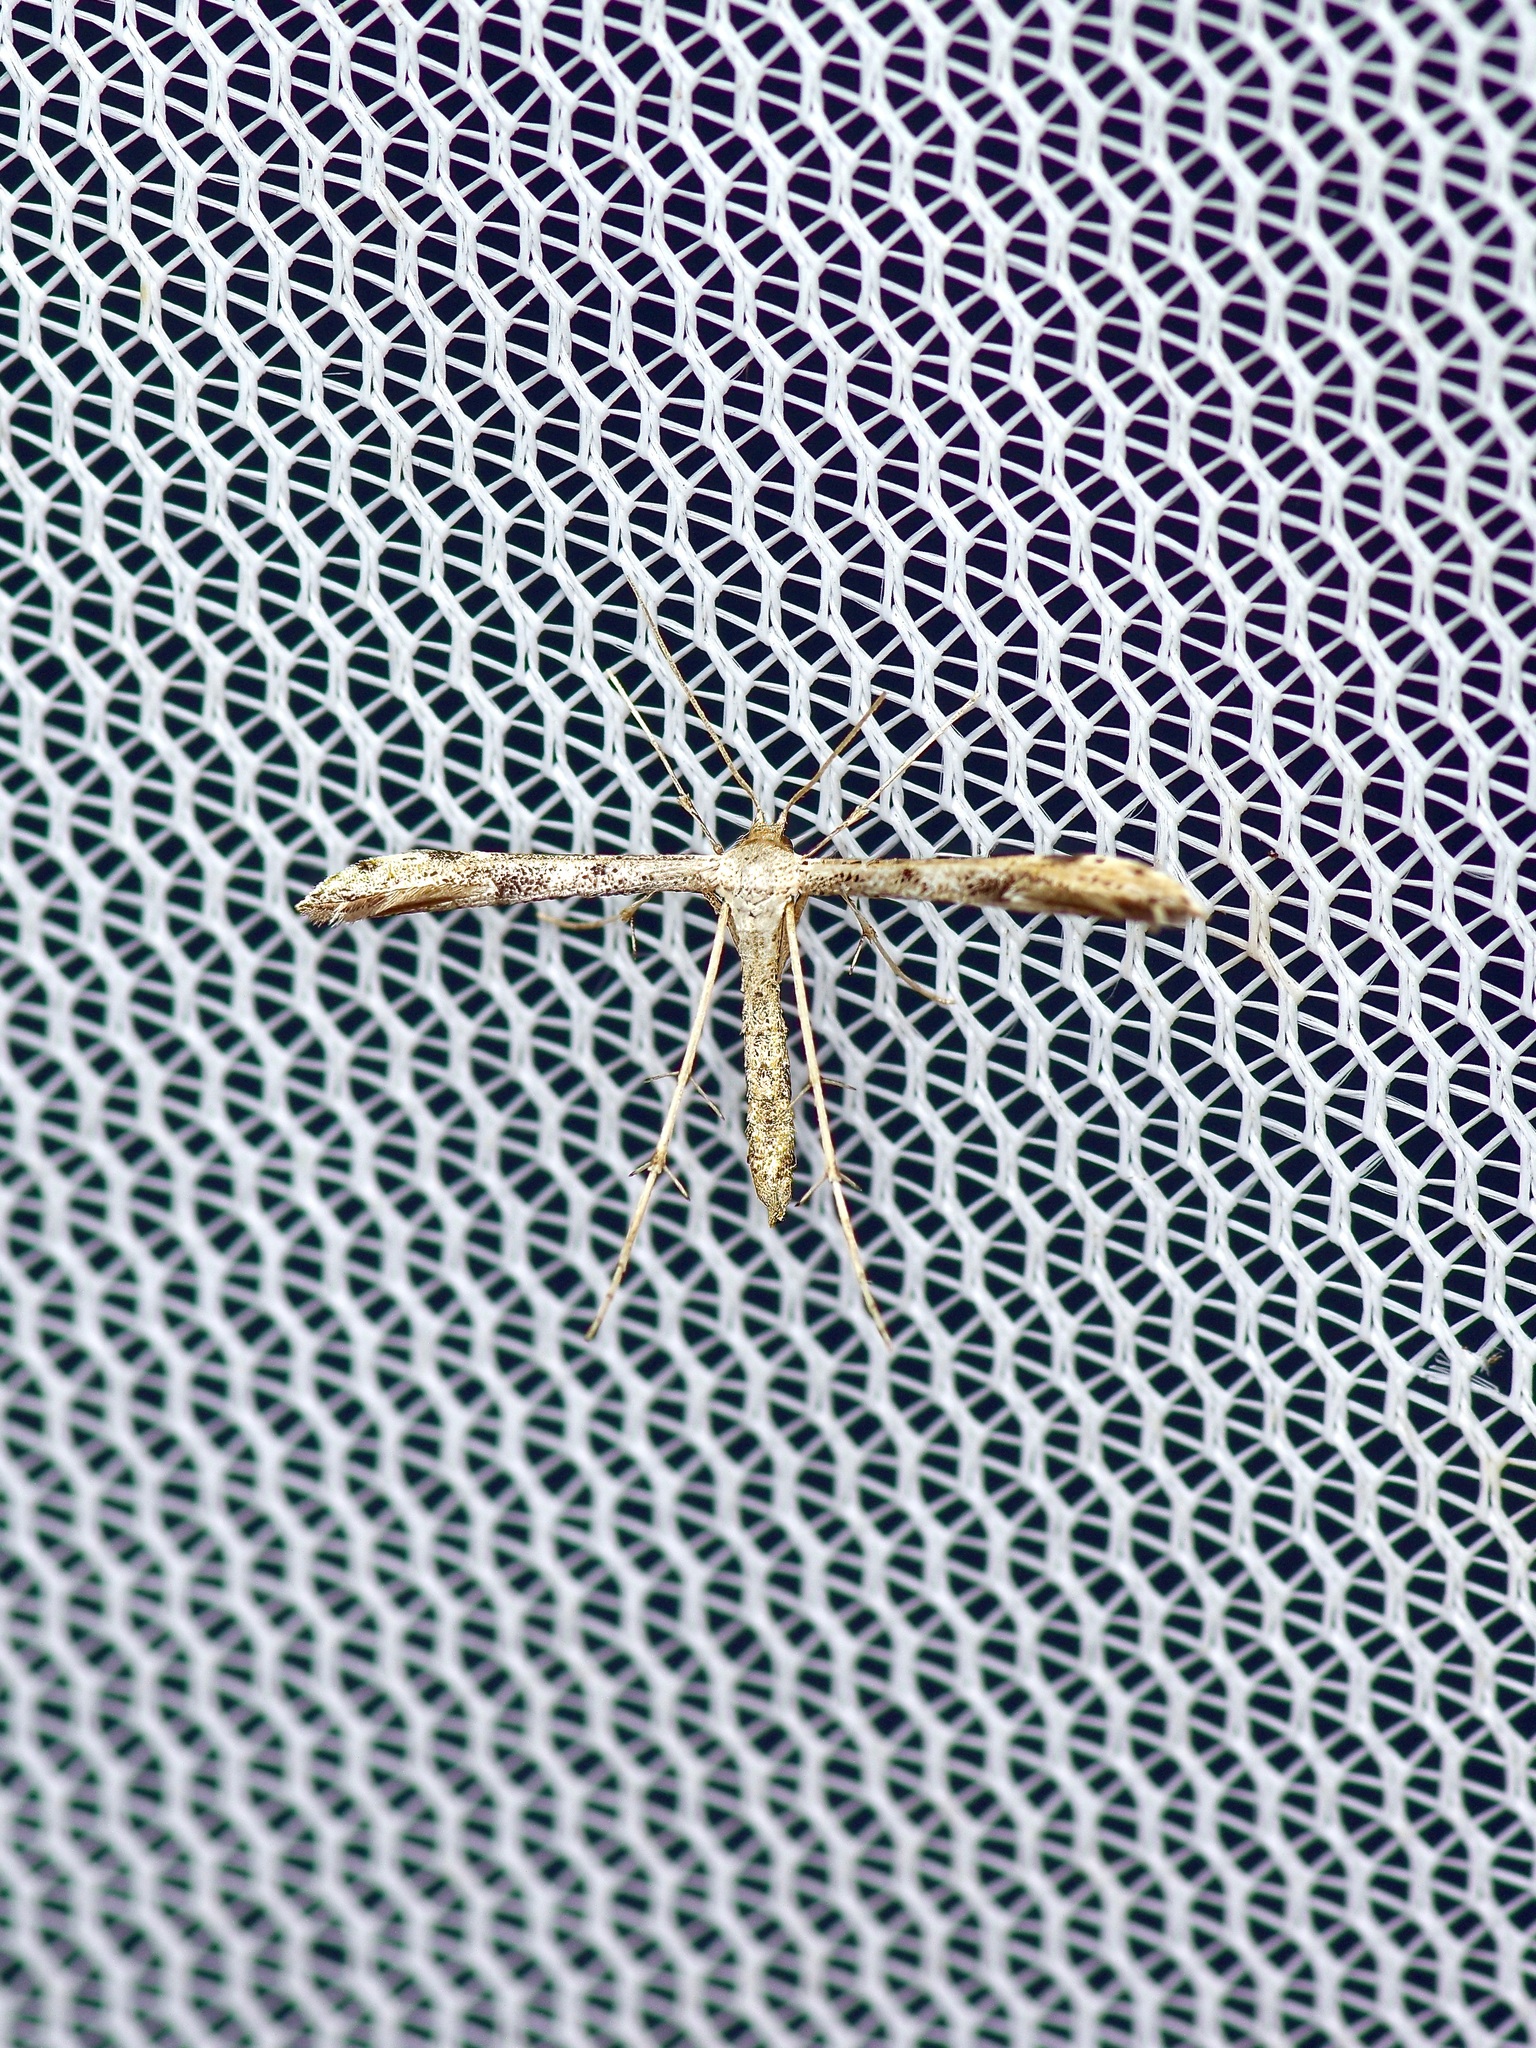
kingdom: Animalia
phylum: Arthropoda
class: Insecta
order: Lepidoptera
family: Pterophoridae
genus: Adaina
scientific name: Adaina ambrosiae
